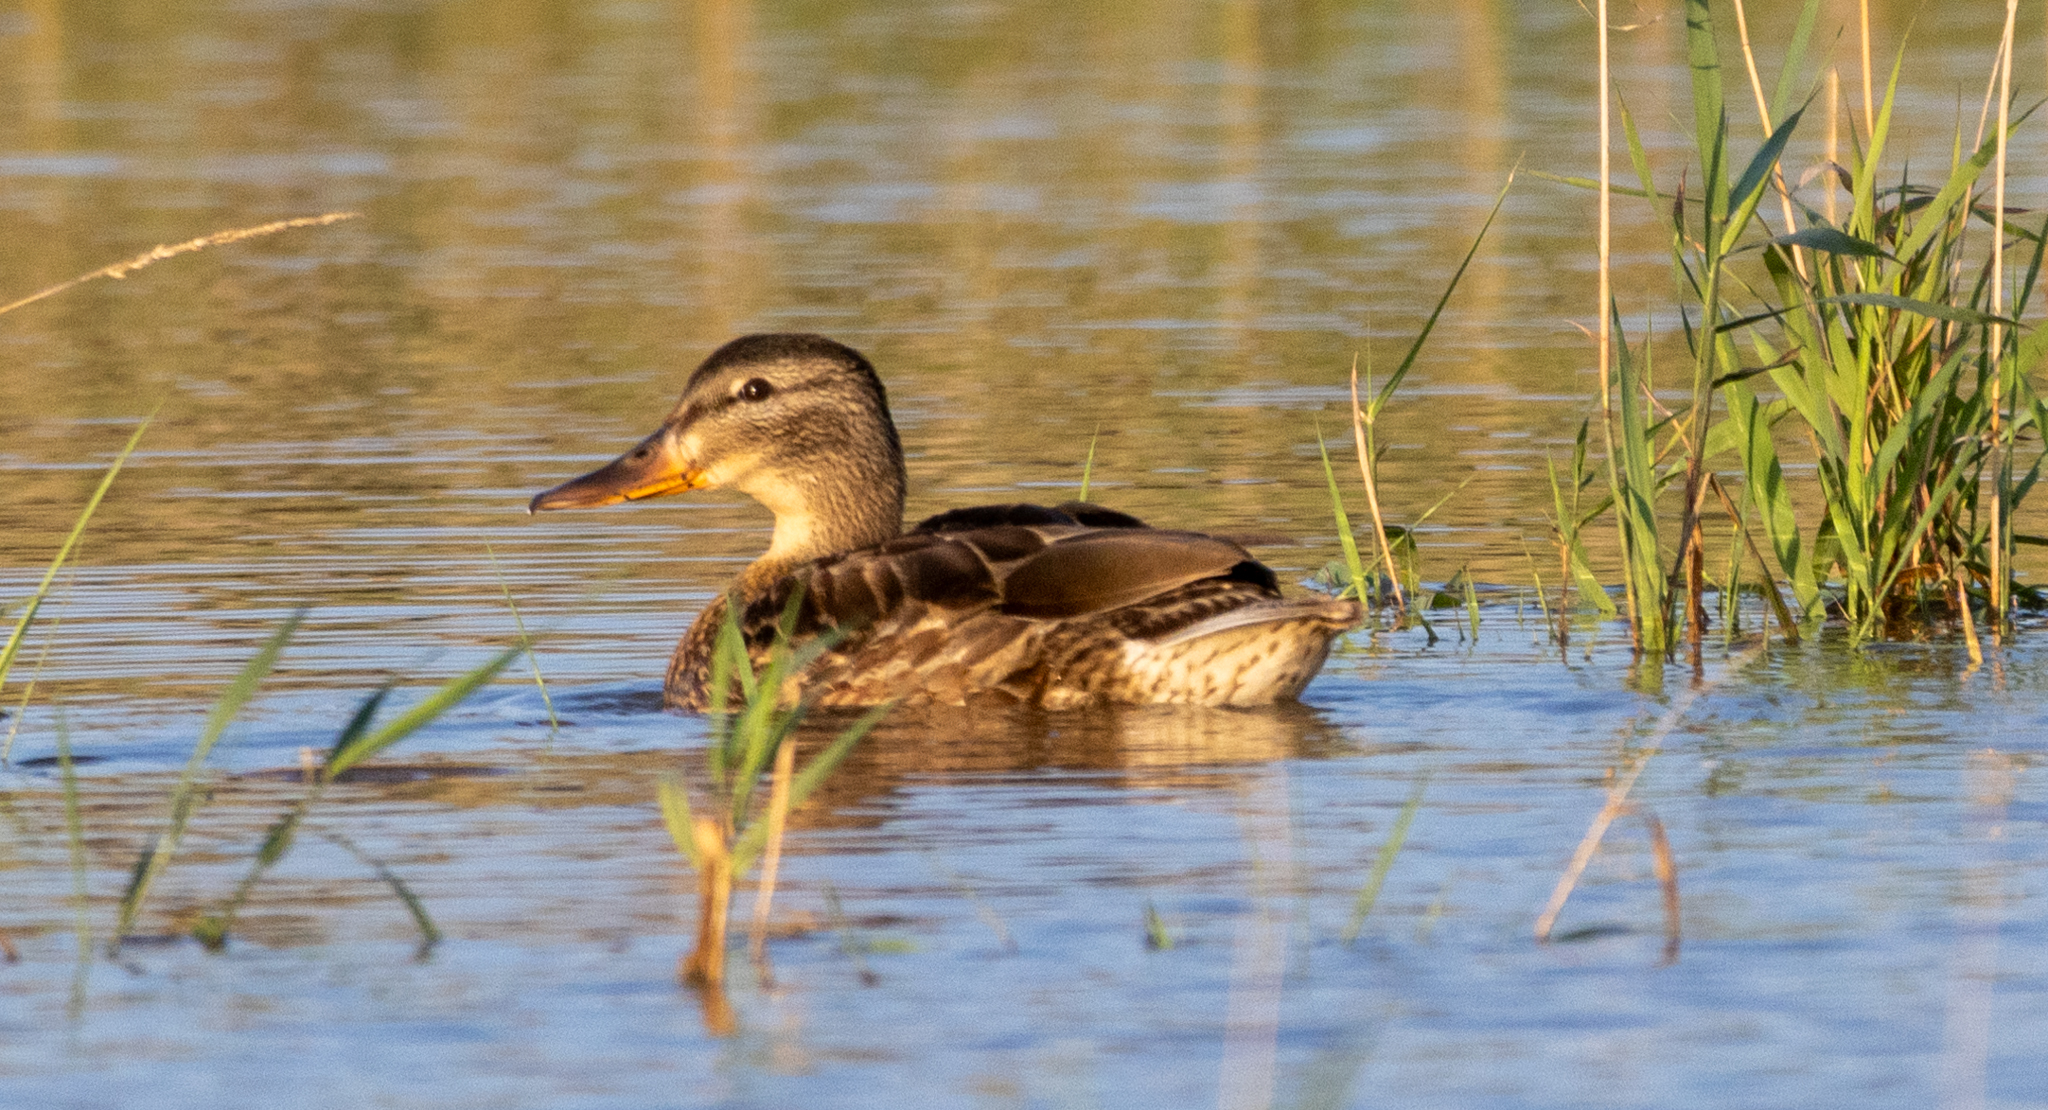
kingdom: Animalia
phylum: Chordata
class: Aves
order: Anseriformes
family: Anatidae
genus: Anas
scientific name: Anas platyrhynchos
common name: Mallard
